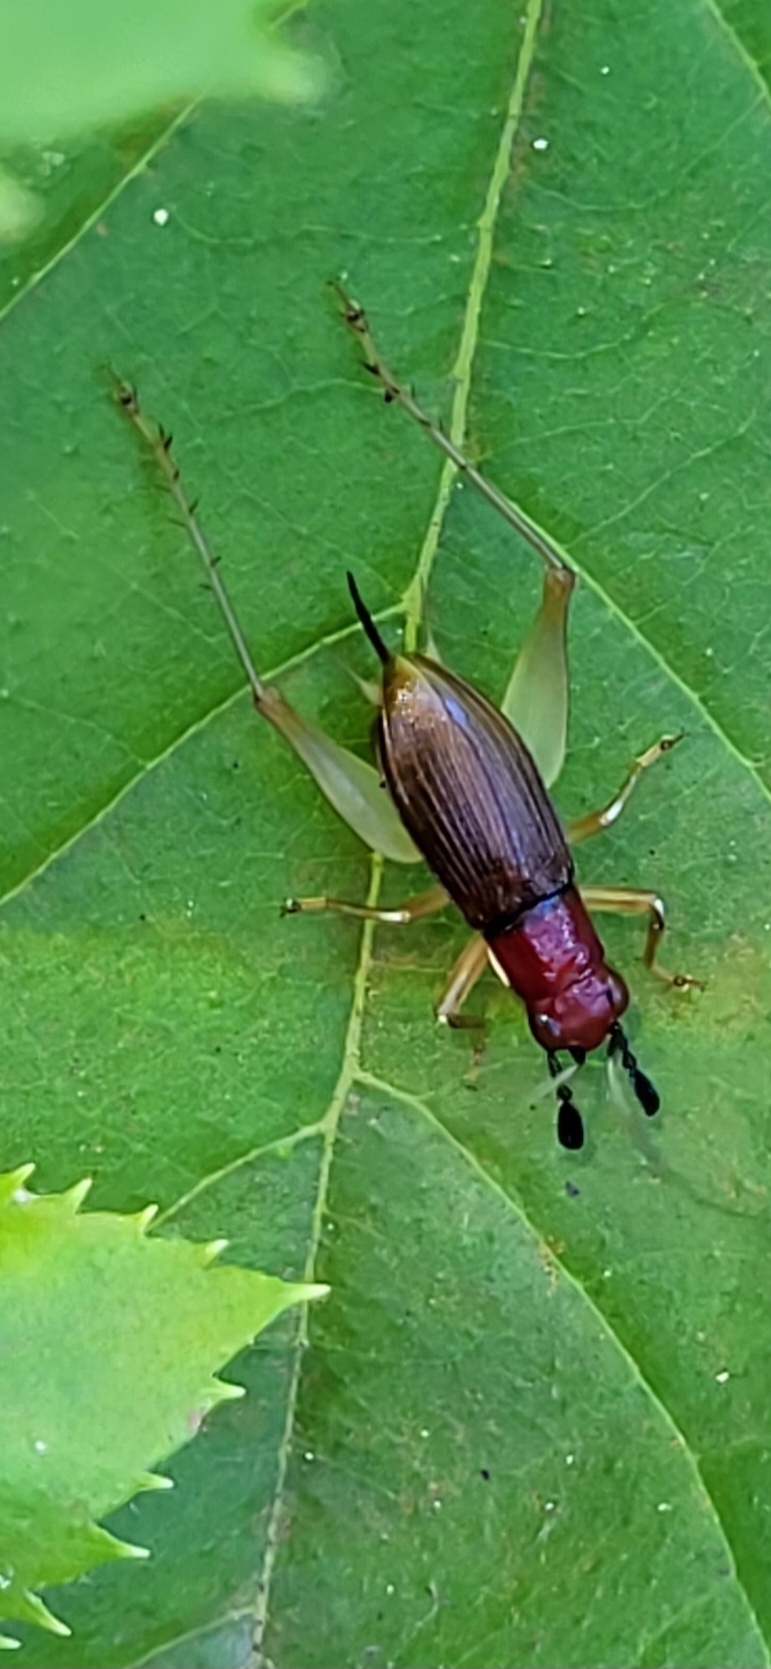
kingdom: Animalia
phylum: Arthropoda
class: Insecta
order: Orthoptera
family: Trigonidiidae
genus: Phyllopalpus
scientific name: Phyllopalpus pulchellus
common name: Handsome trig
